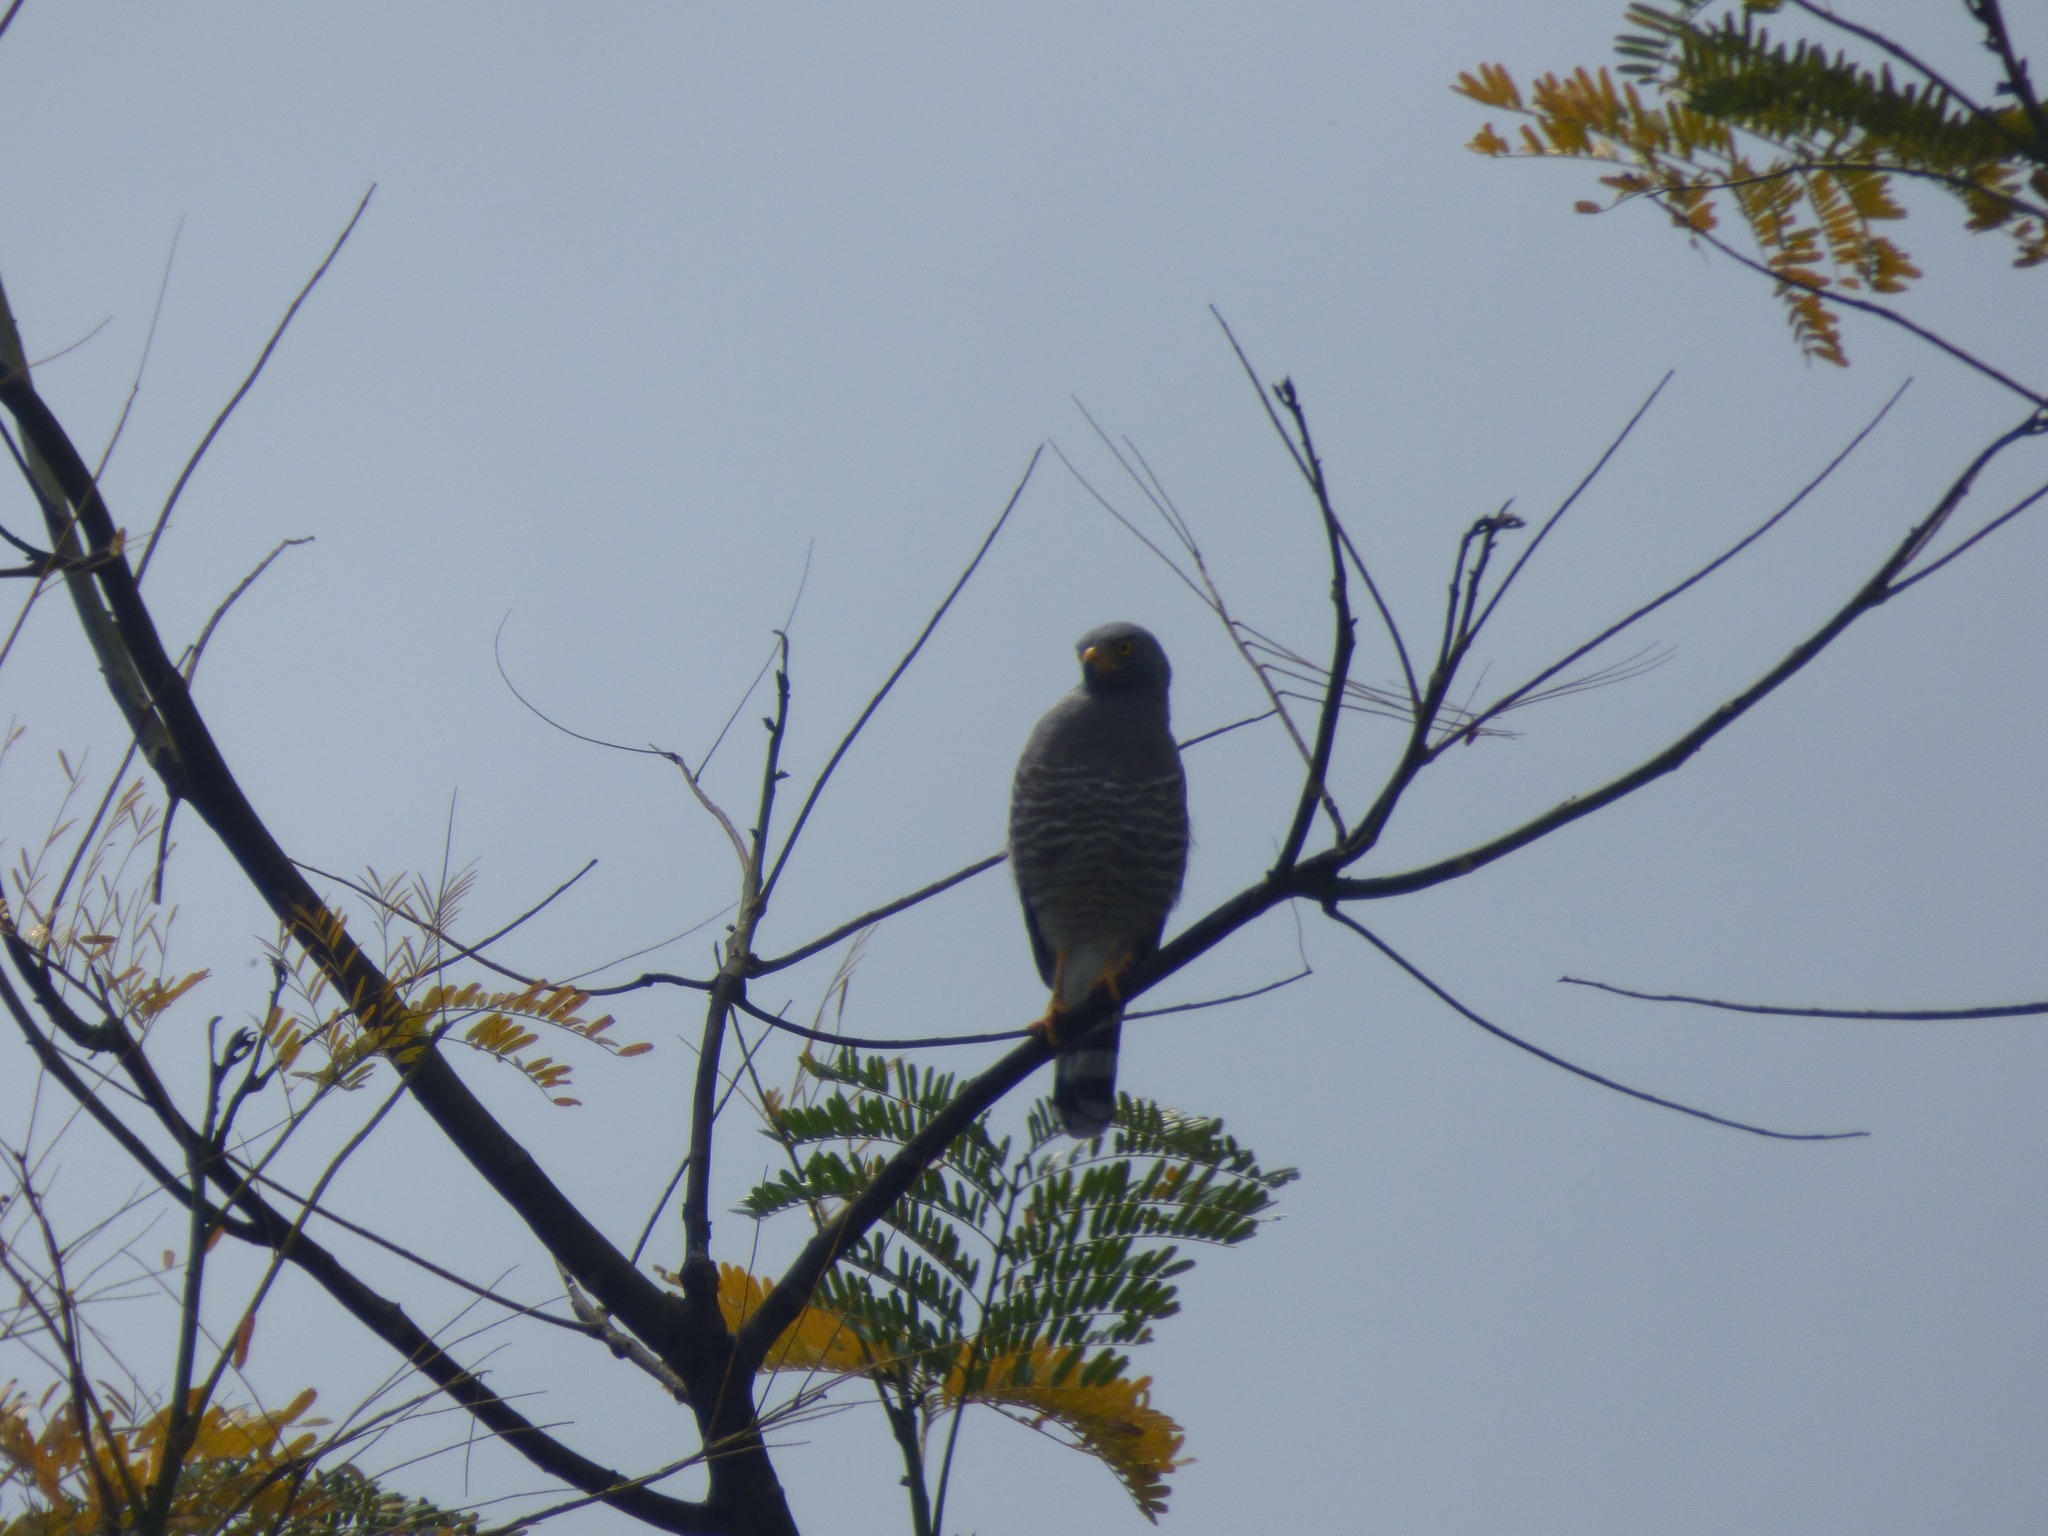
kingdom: Animalia
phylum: Chordata
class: Aves
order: Accipitriformes
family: Accipitridae
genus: Rupornis
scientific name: Rupornis magnirostris
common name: Roadside hawk
